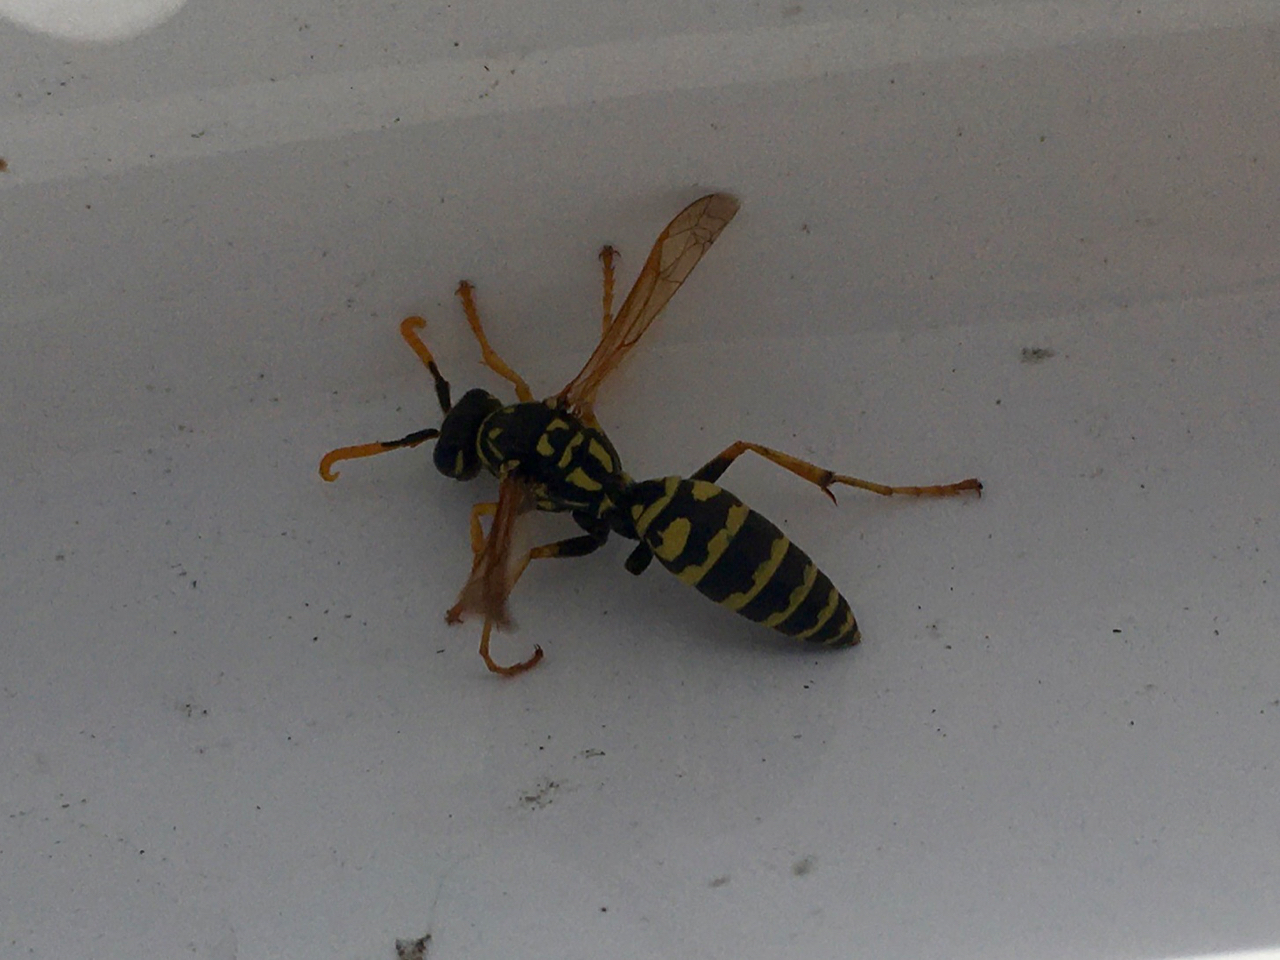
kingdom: Animalia
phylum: Arthropoda
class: Insecta
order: Hymenoptera
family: Eumenidae
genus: Polistes
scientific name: Polistes dominula
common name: Paper wasp
